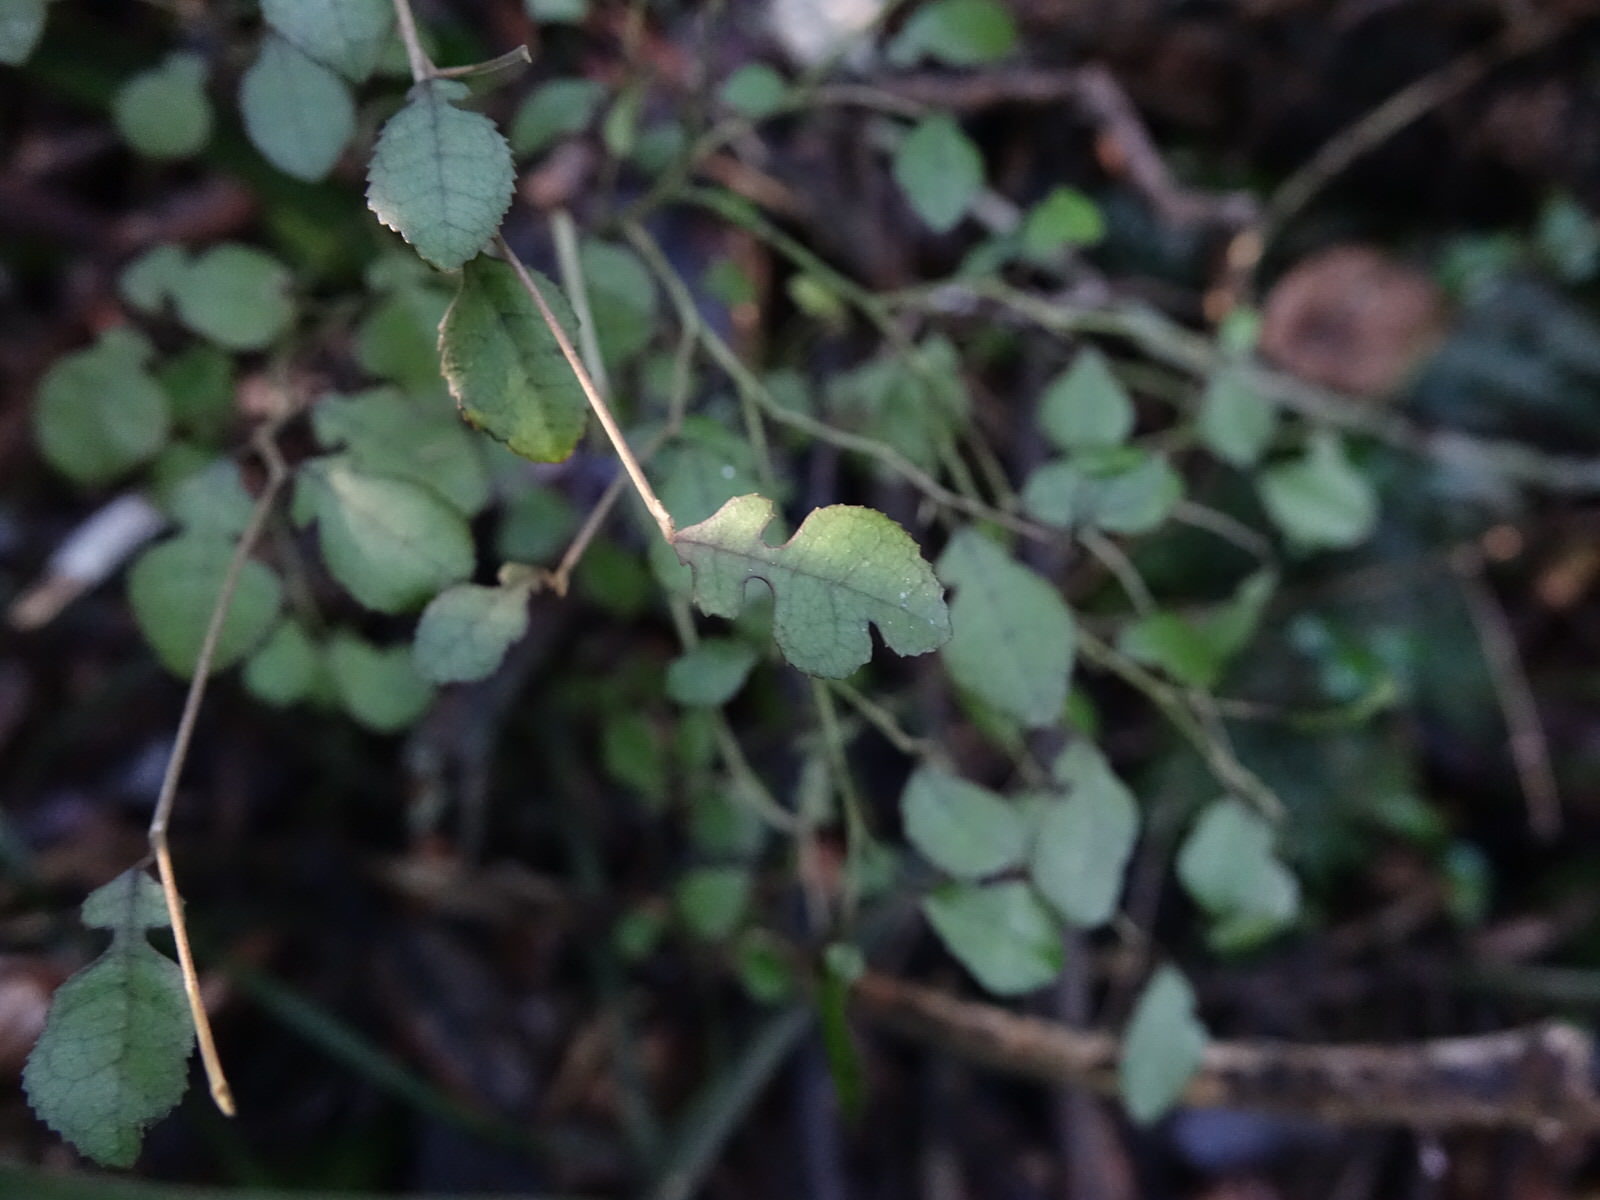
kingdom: Plantae
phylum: Tracheophyta
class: Magnoliopsida
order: Rosales
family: Moraceae
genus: Paratrophis
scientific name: Paratrophis microphylla
